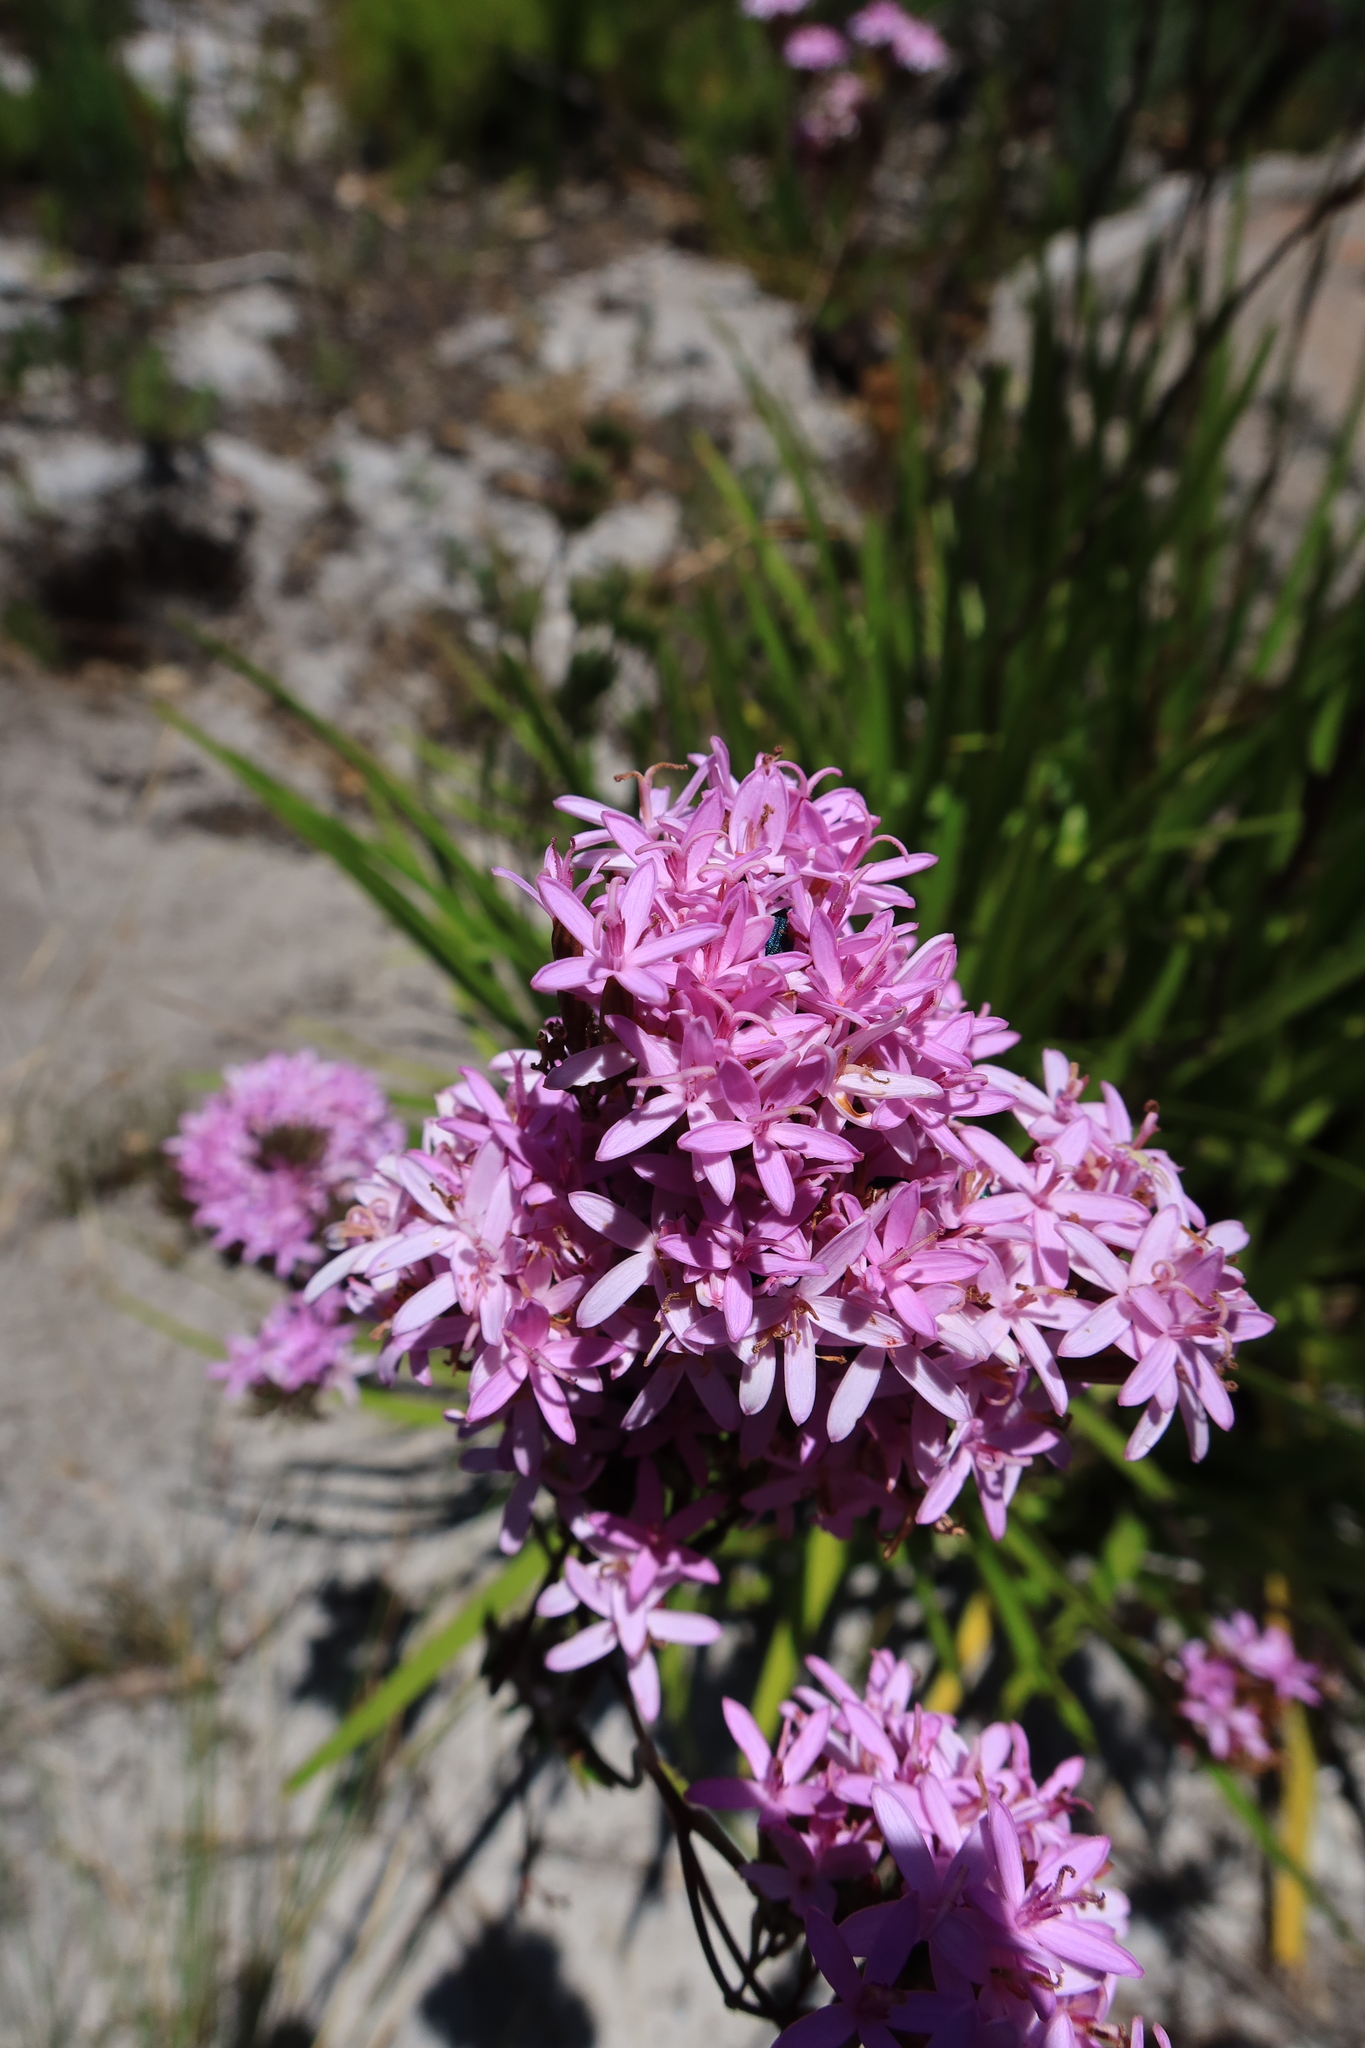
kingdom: Plantae
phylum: Tracheophyta
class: Magnoliopsida
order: Asterales
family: Asteraceae
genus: Corymbium
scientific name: Corymbium glabrum
